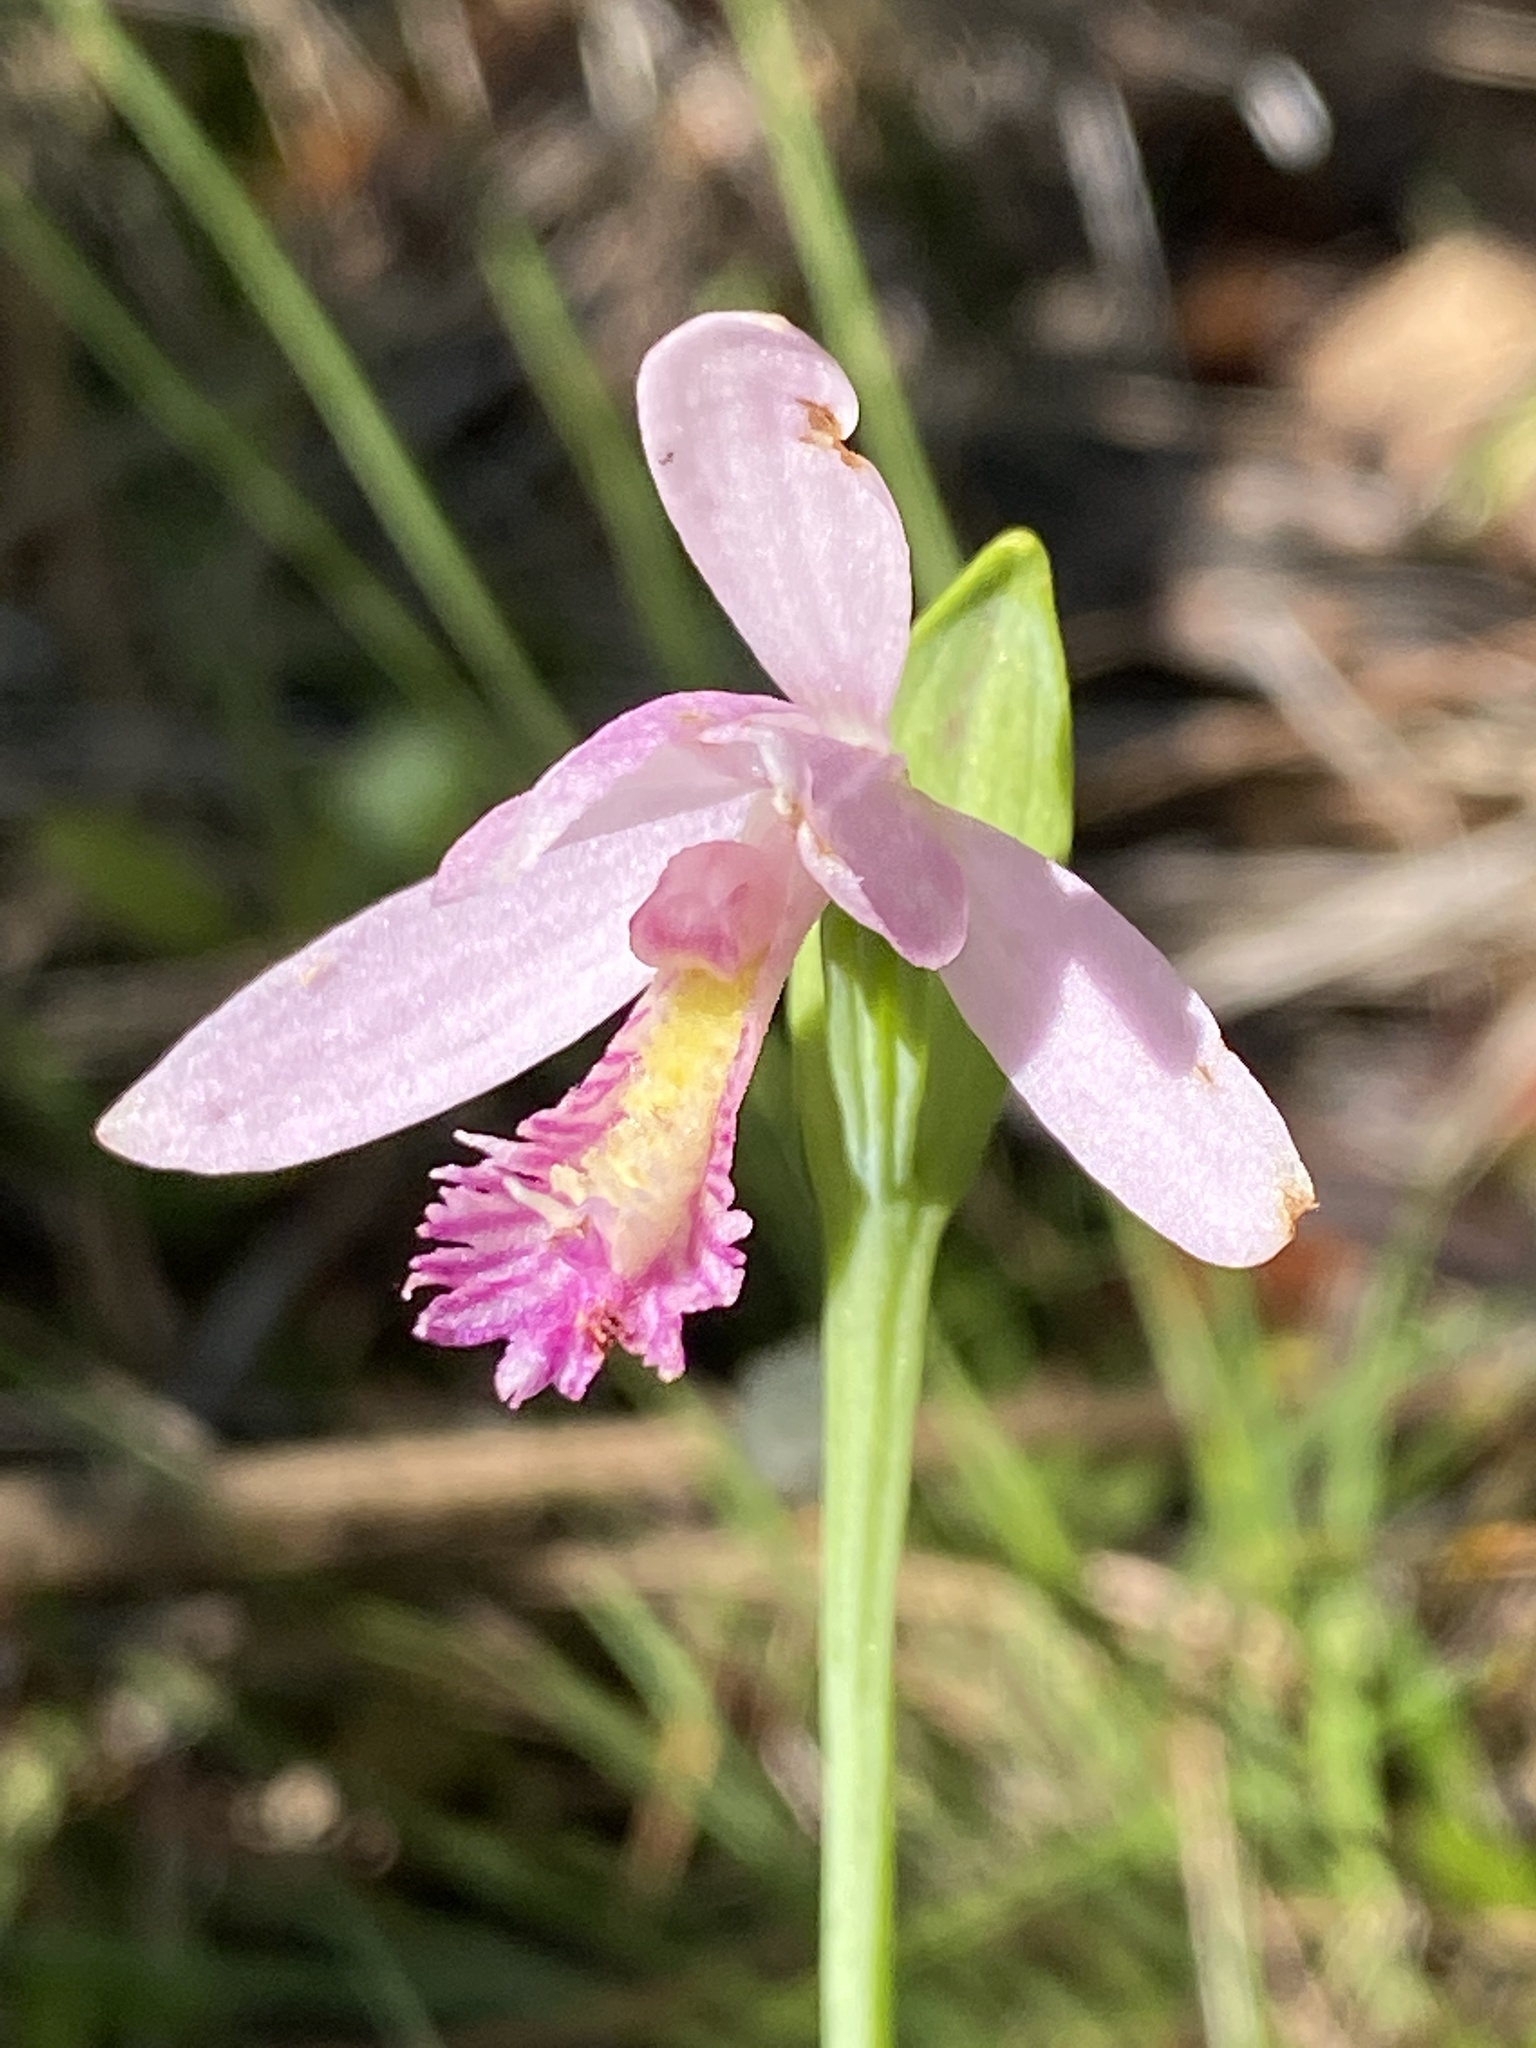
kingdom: Plantae
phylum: Tracheophyta
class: Liliopsida
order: Asparagales
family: Orchidaceae
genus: Pogonia
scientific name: Pogonia ophioglossoides
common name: Rose pogonia
